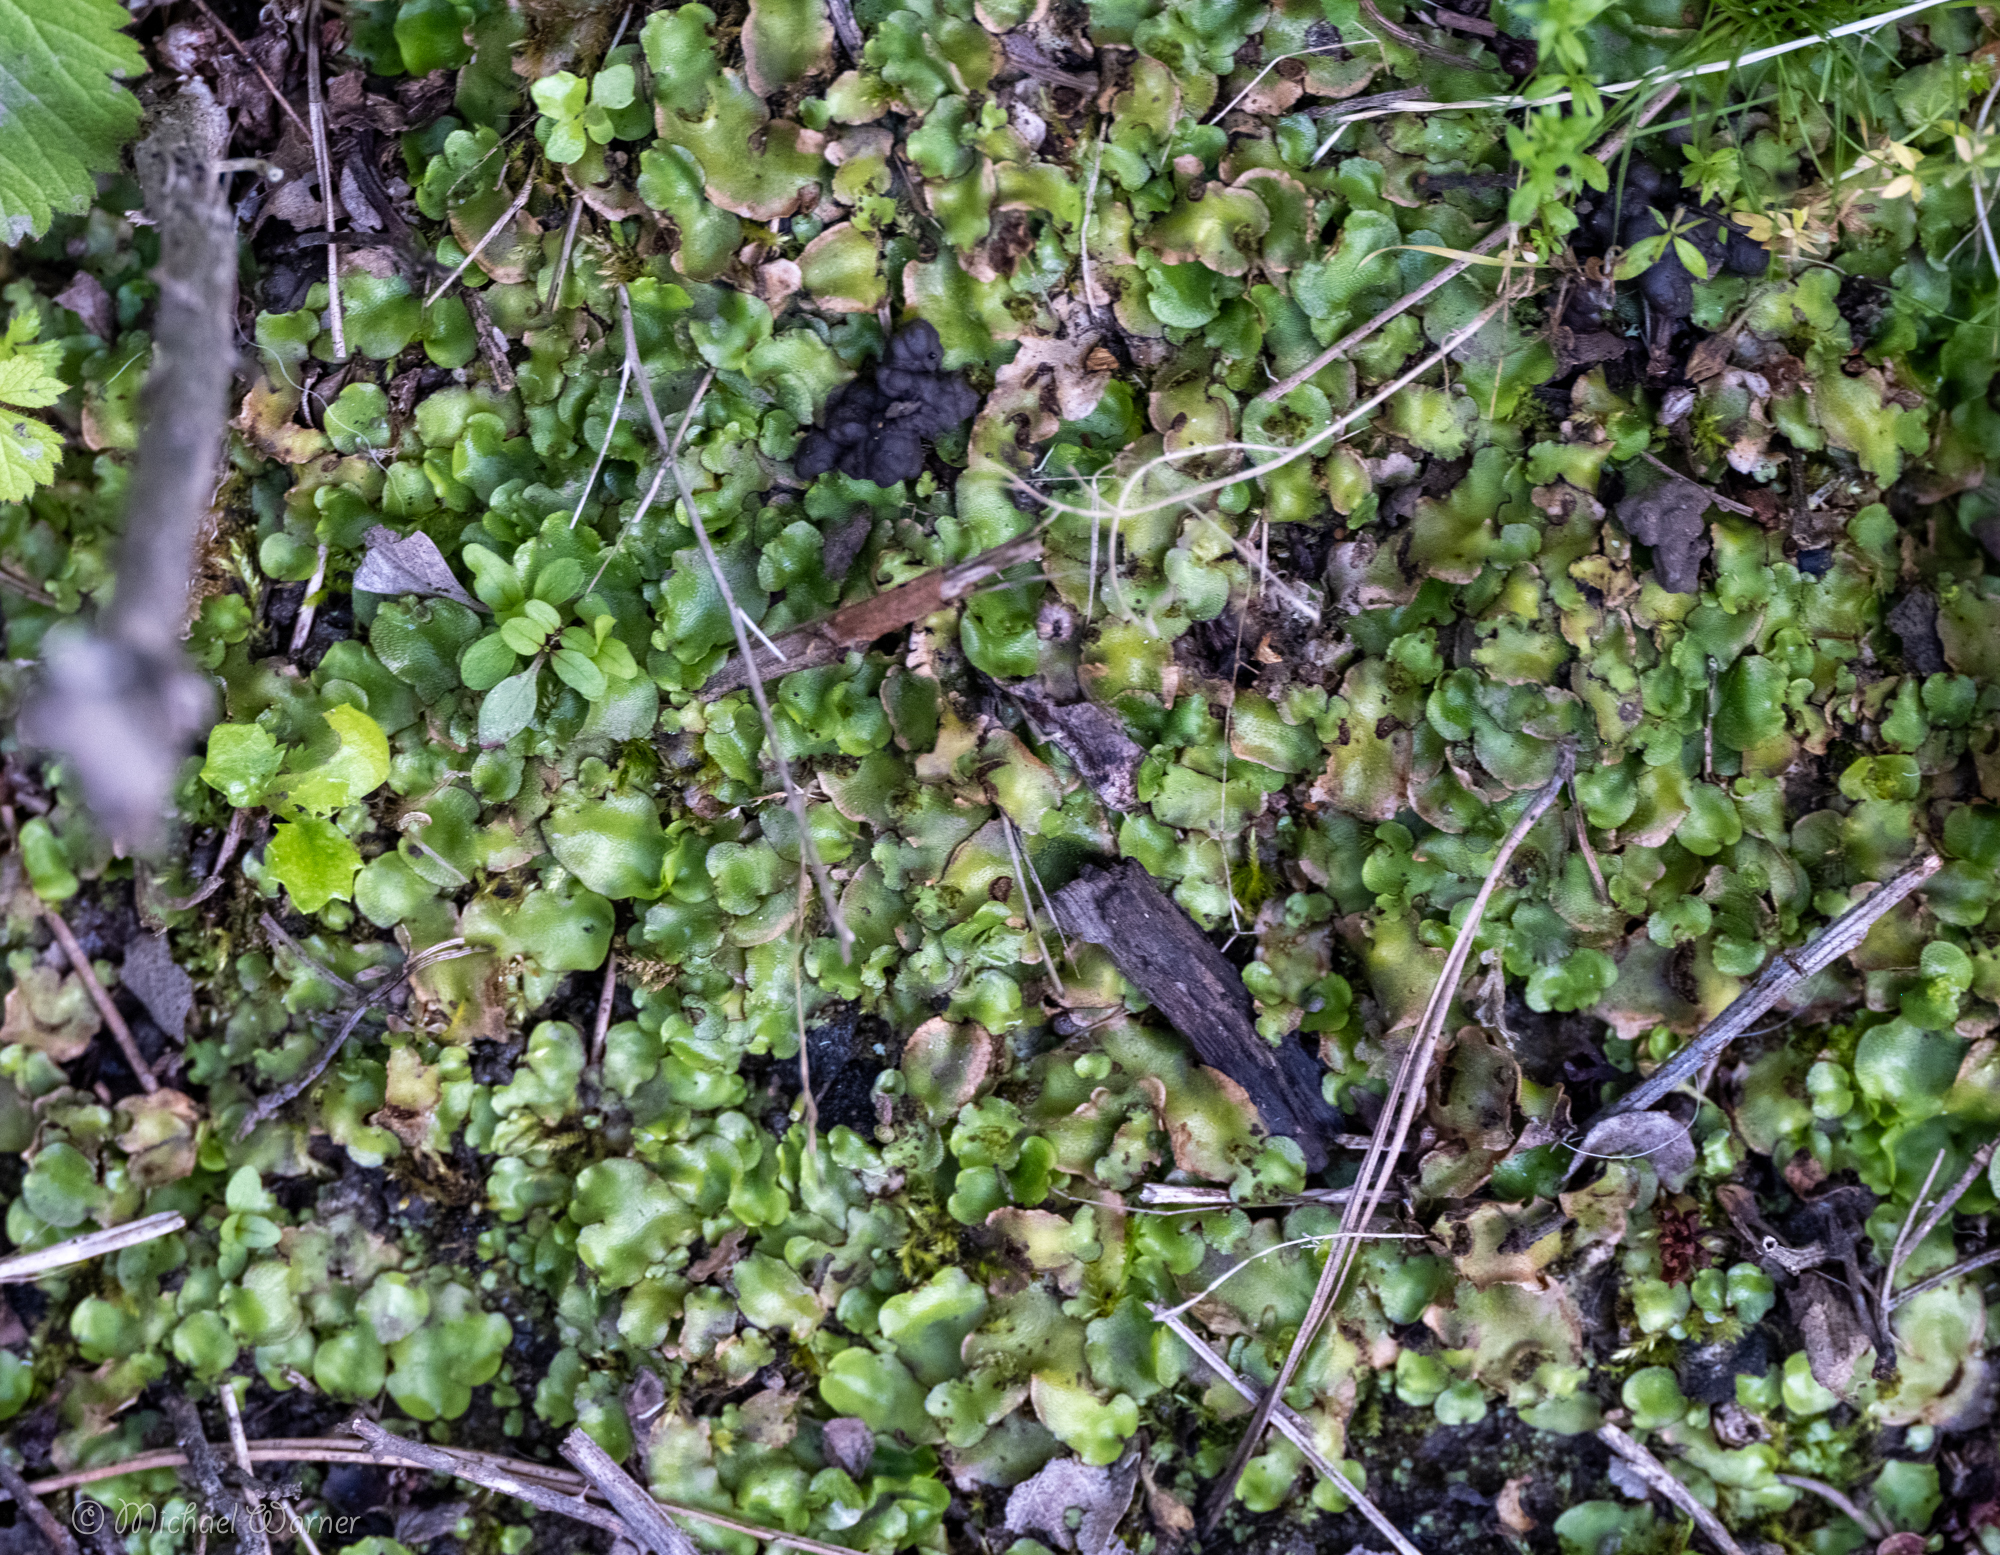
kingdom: Plantae
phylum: Marchantiophyta
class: Marchantiopsida
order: Lunulariales
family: Lunulariaceae
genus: Lunularia
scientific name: Lunularia cruciata
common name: Crescent-cup liverwort
